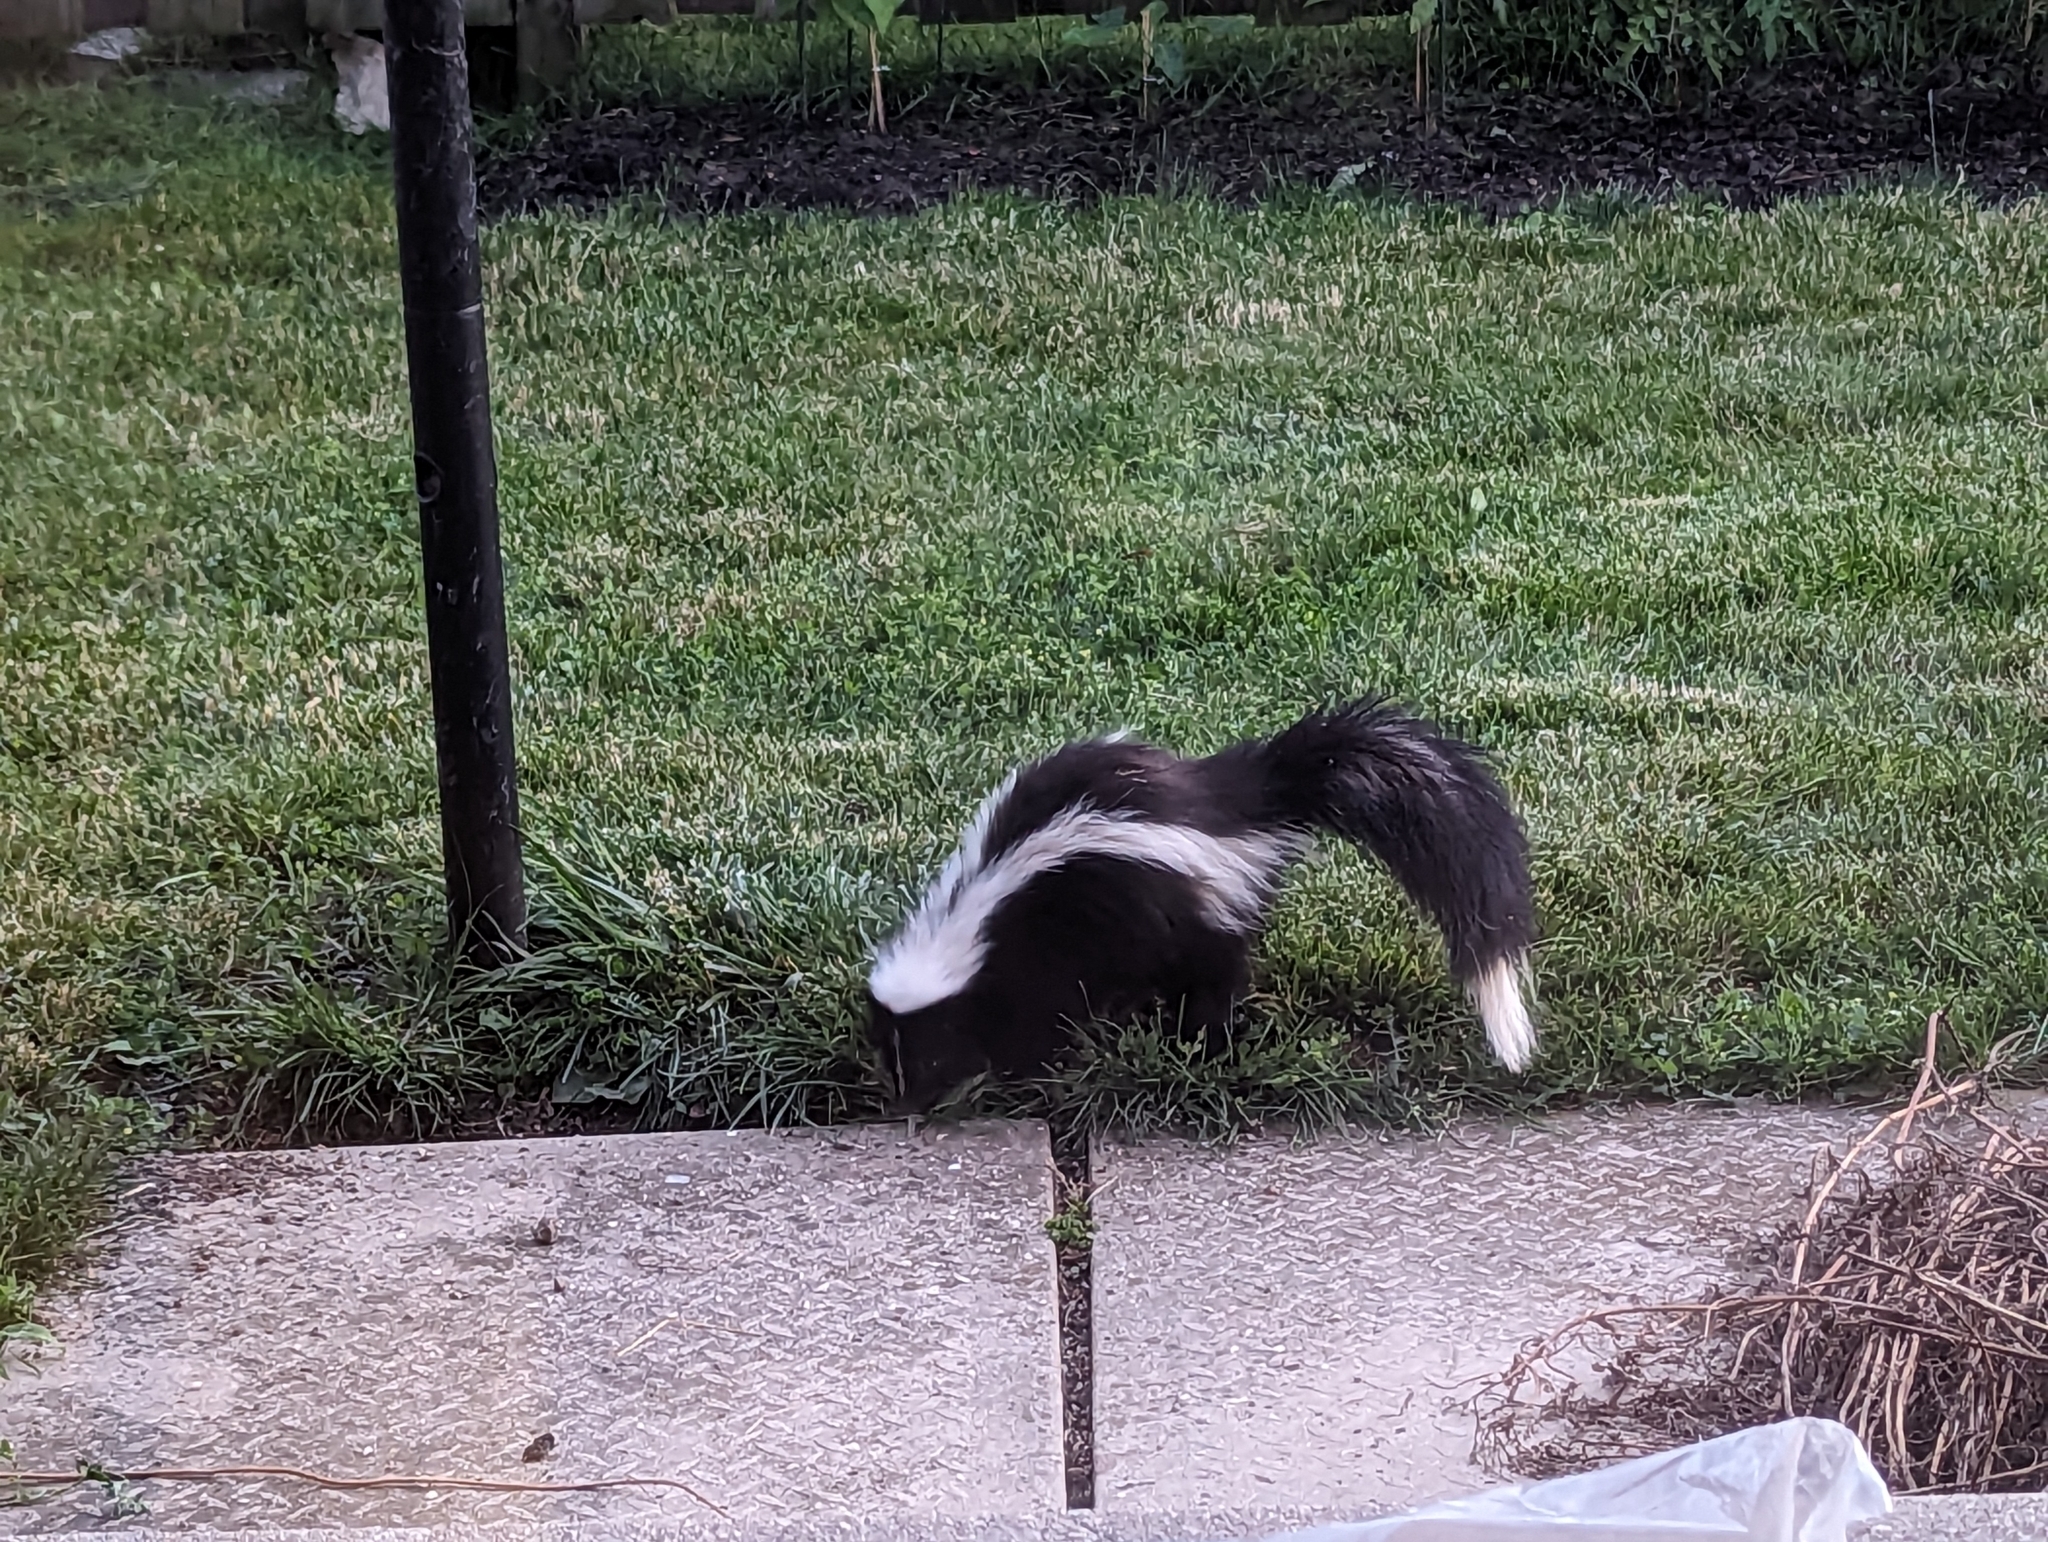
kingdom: Animalia
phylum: Chordata
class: Mammalia
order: Carnivora
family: Mephitidae
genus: Mephitis
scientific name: Mephitis mephitis
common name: Striped skunk
